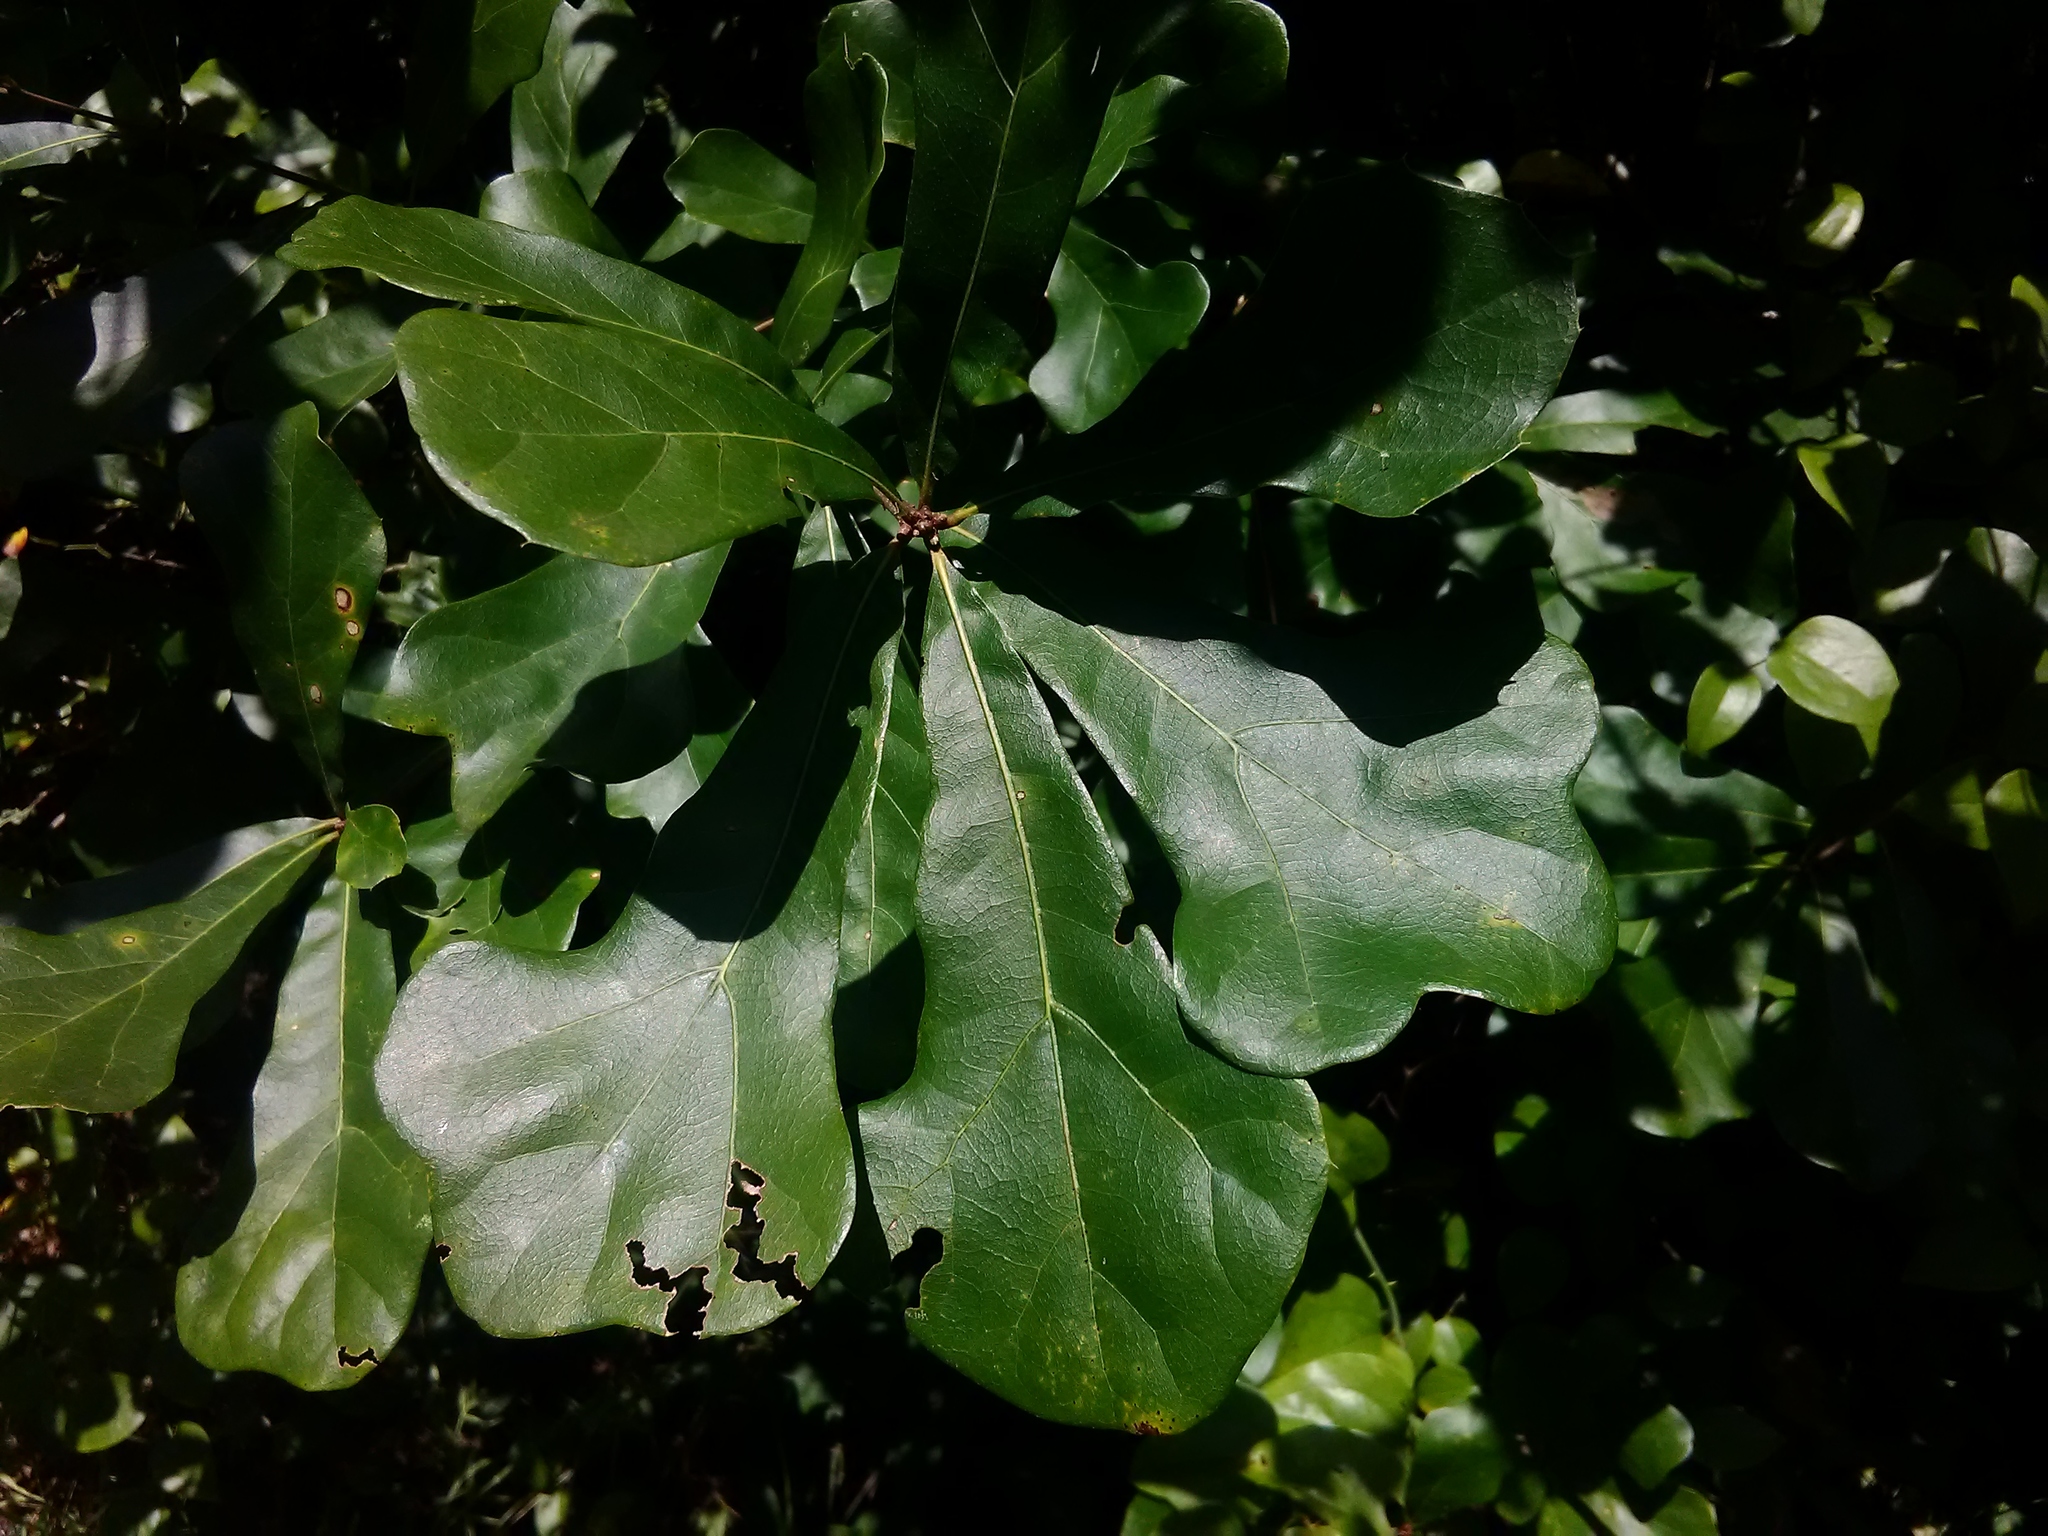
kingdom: Plantae
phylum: Tracheophyta
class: Magnoliopsida
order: Fagales
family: Fagaceae
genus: Quercus
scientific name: Quercus nigra
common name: Water oak
